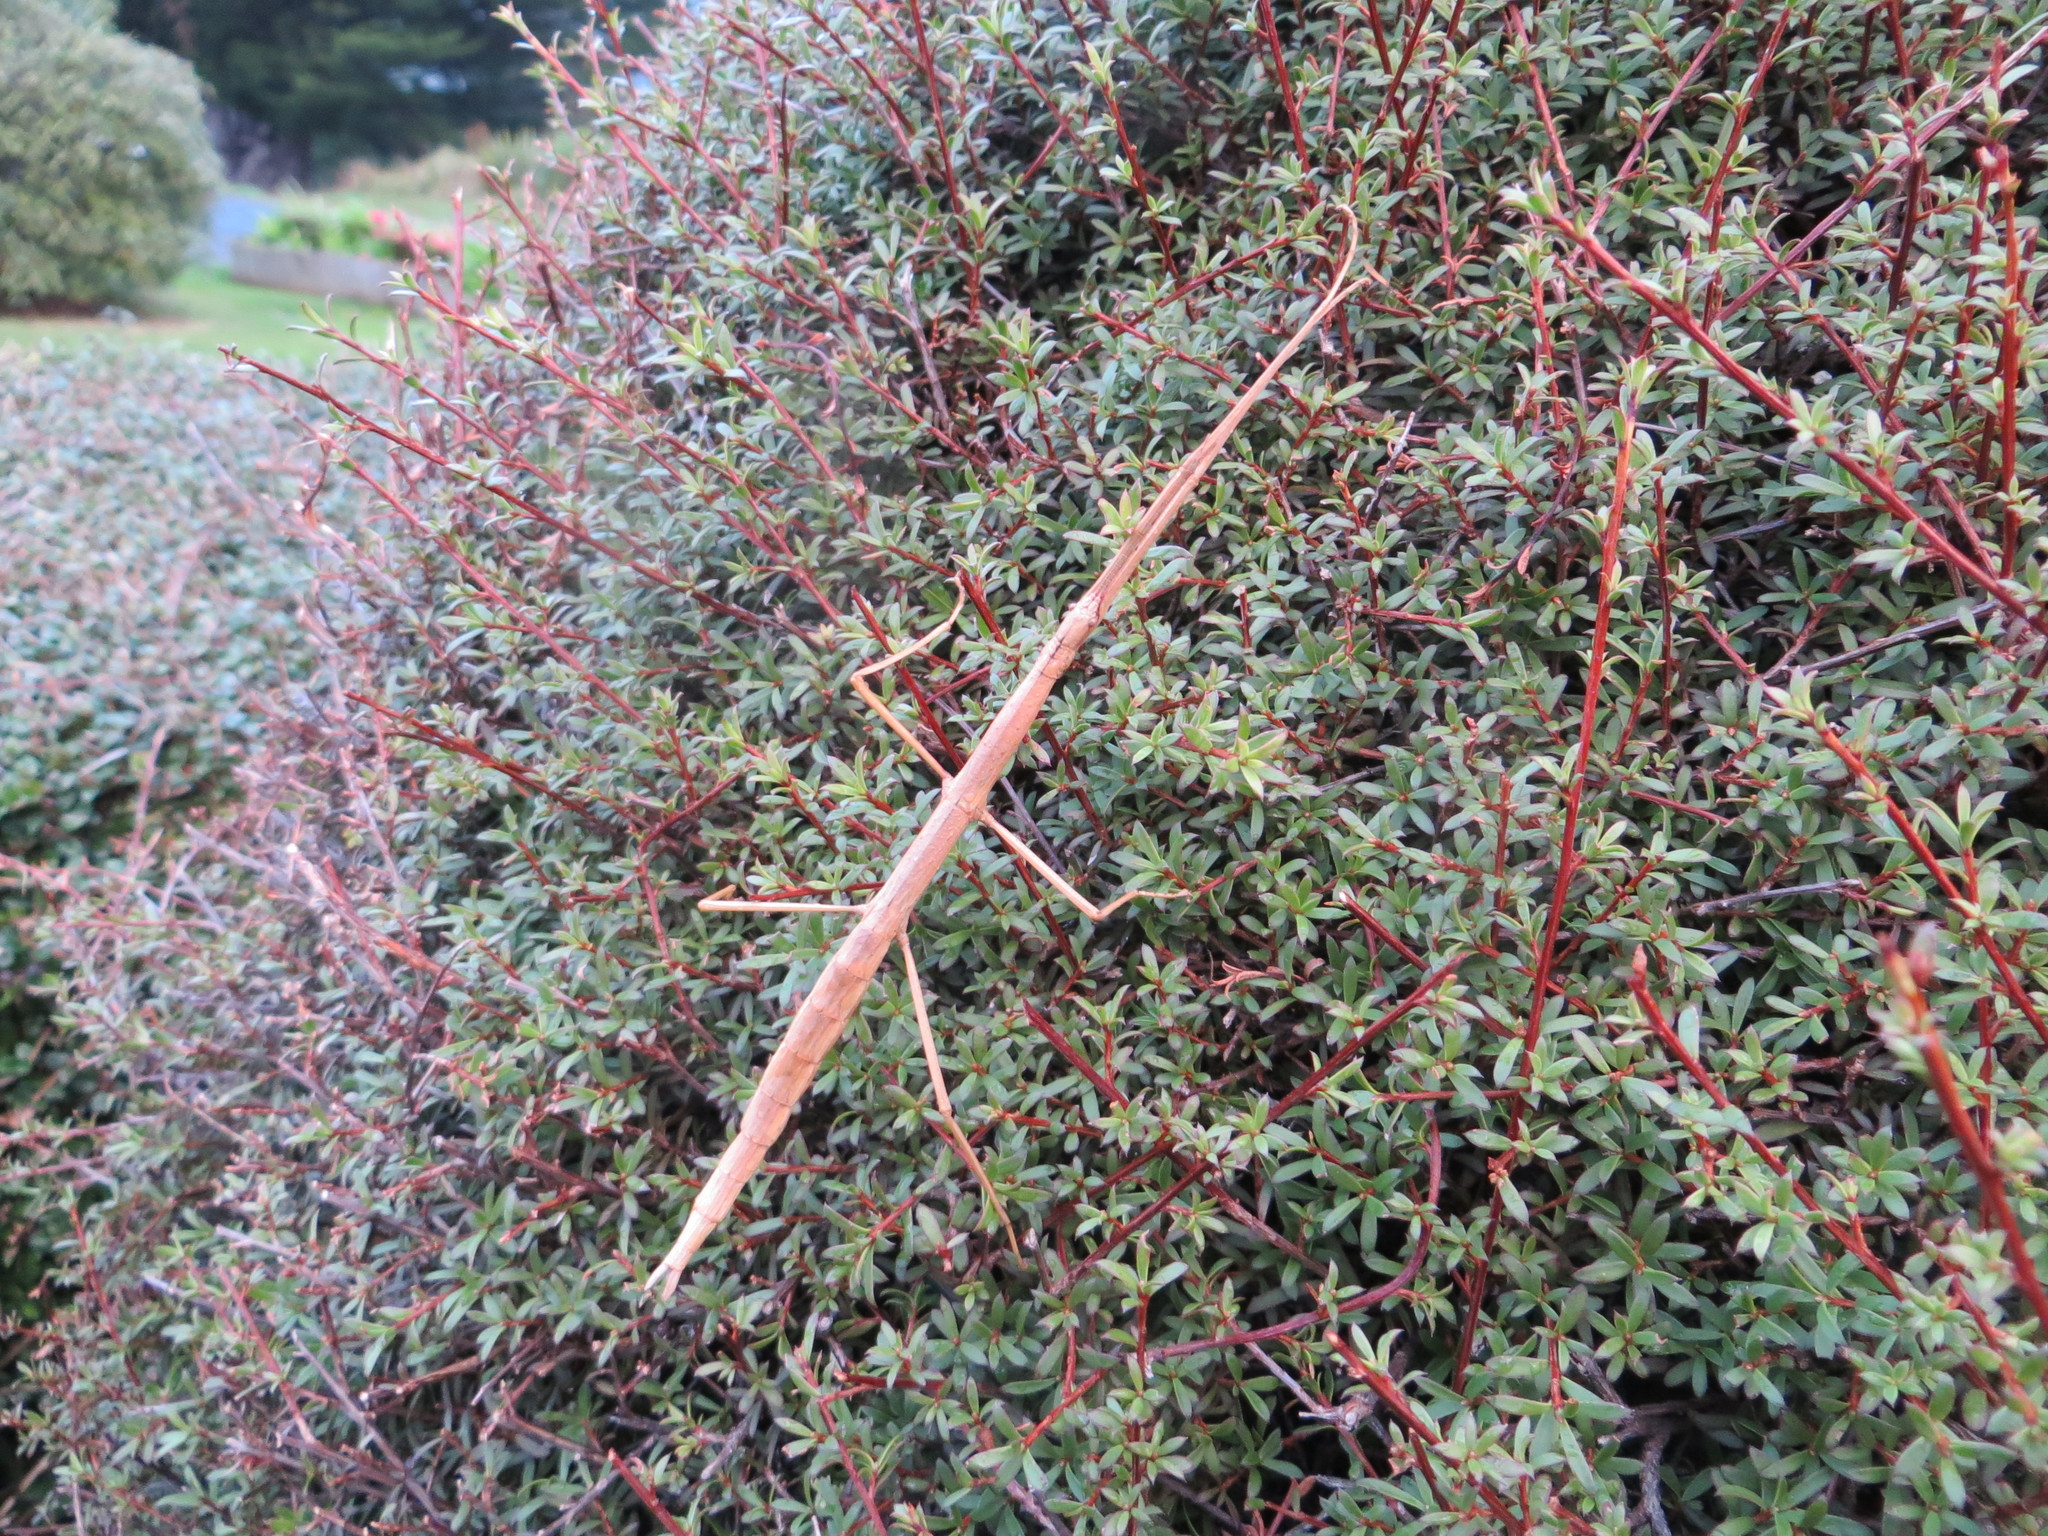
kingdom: Animalia
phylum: Arthropoda
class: Insecta
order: Phasmida
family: Phasmatidae
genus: Clitarchus
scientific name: Clitarchus hookeri
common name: Smooth stick insect
